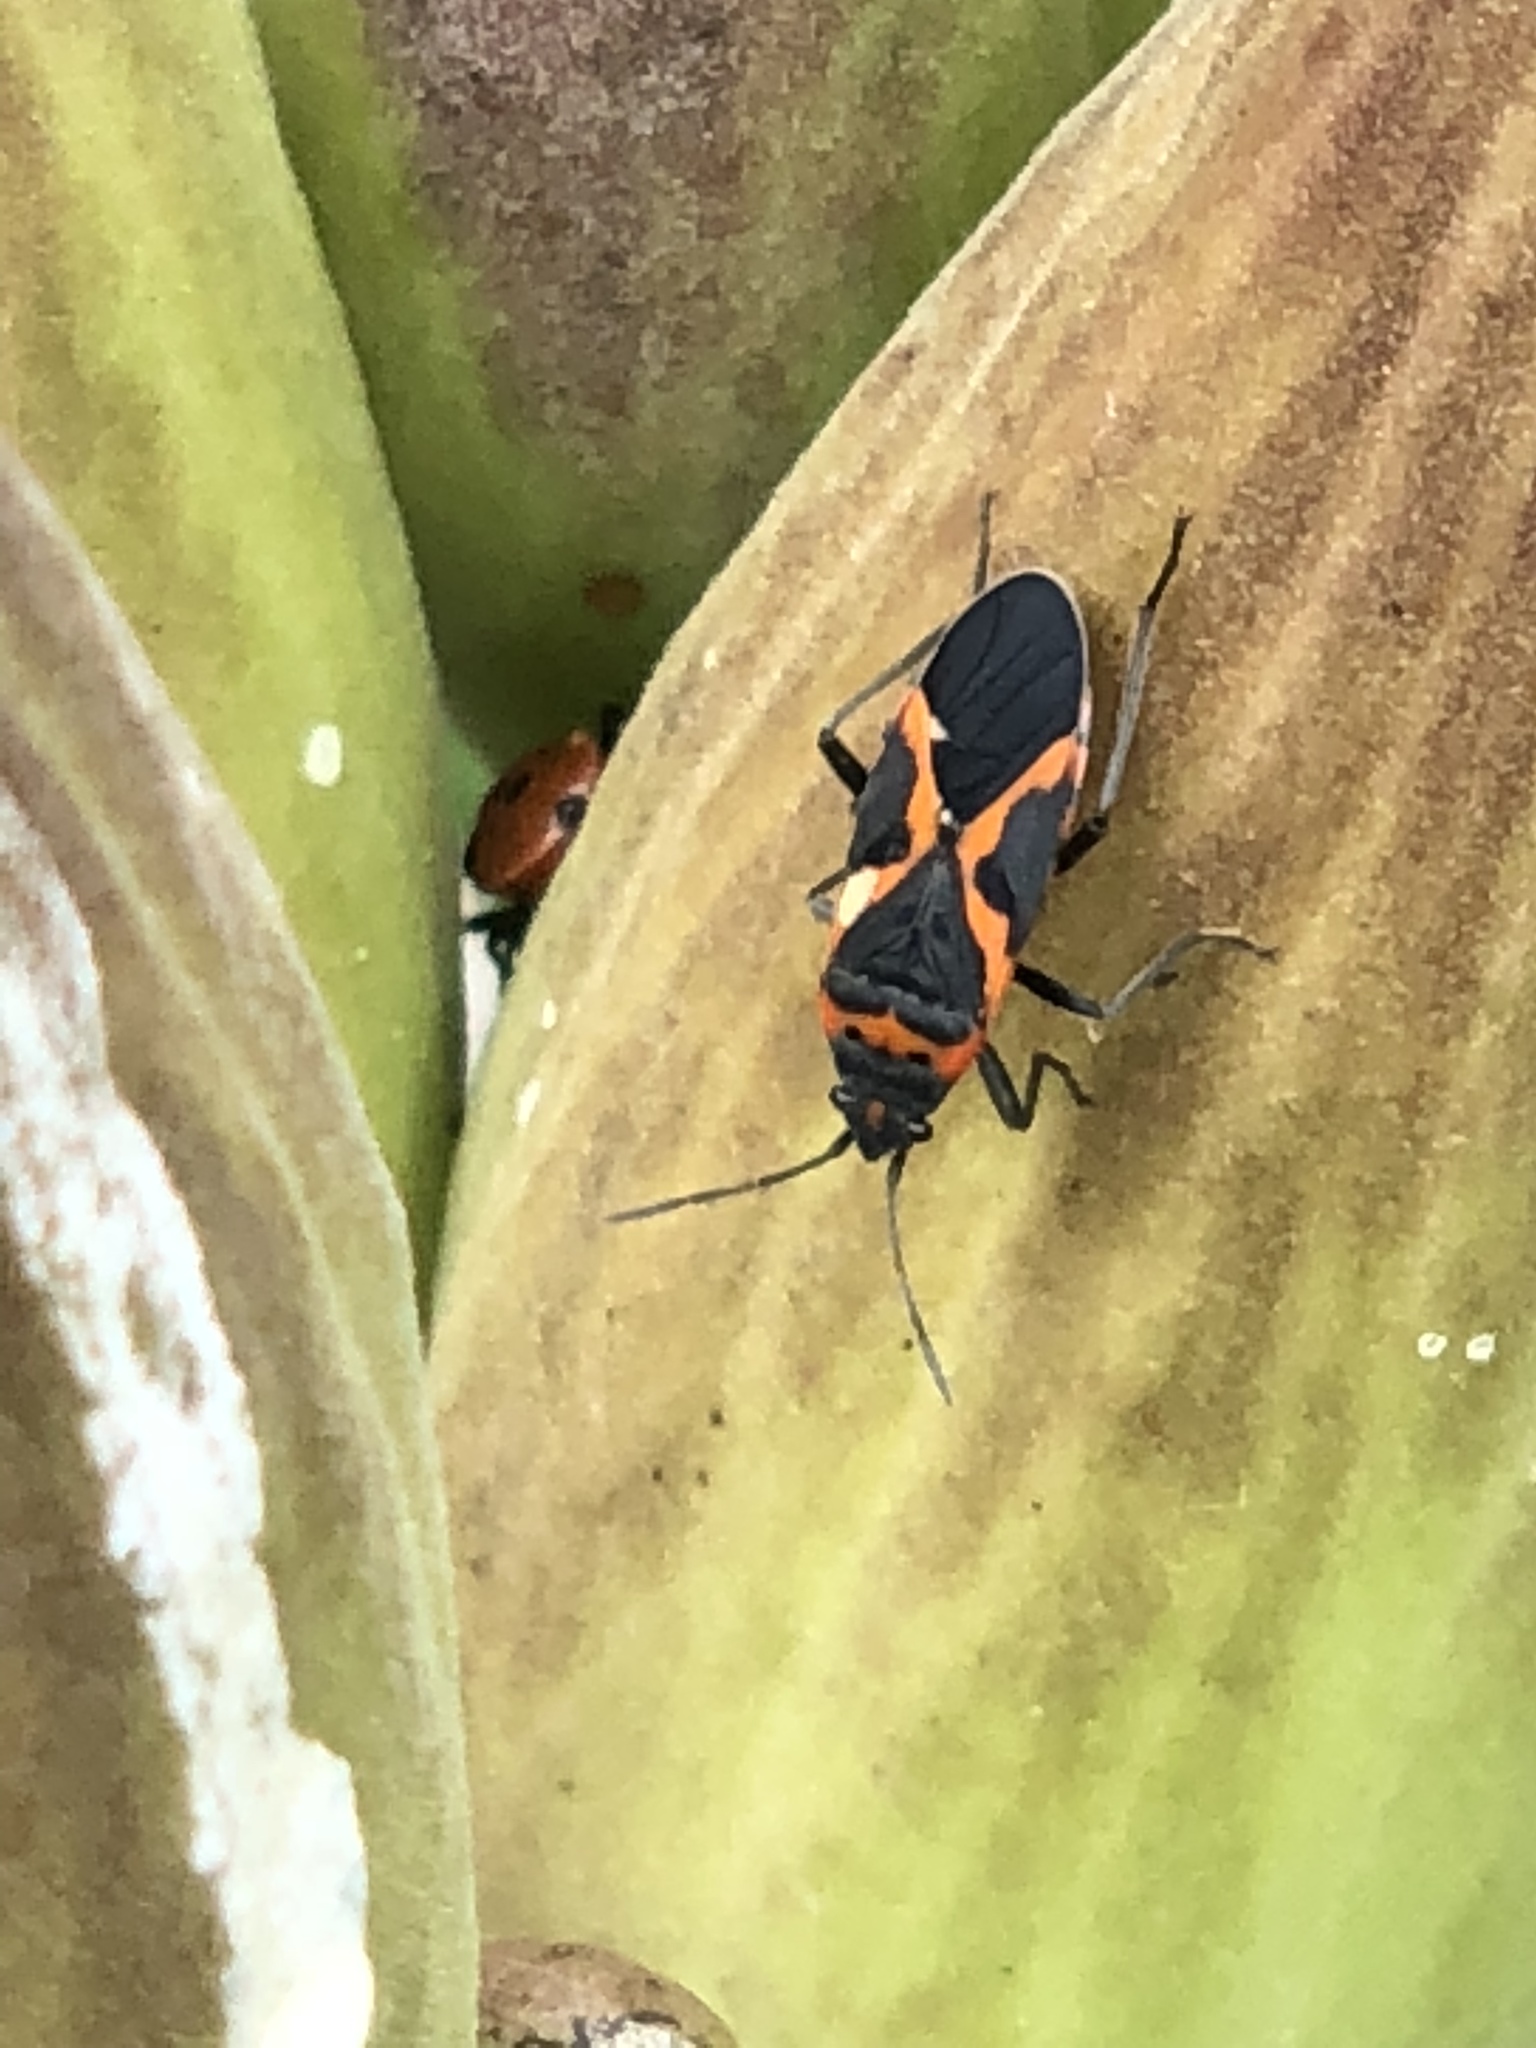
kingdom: Animalia
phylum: Arthropoda
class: Insecta
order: Hemiptera
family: Lygaeidae
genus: Lygaeus
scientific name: Lygaeus kalmii
